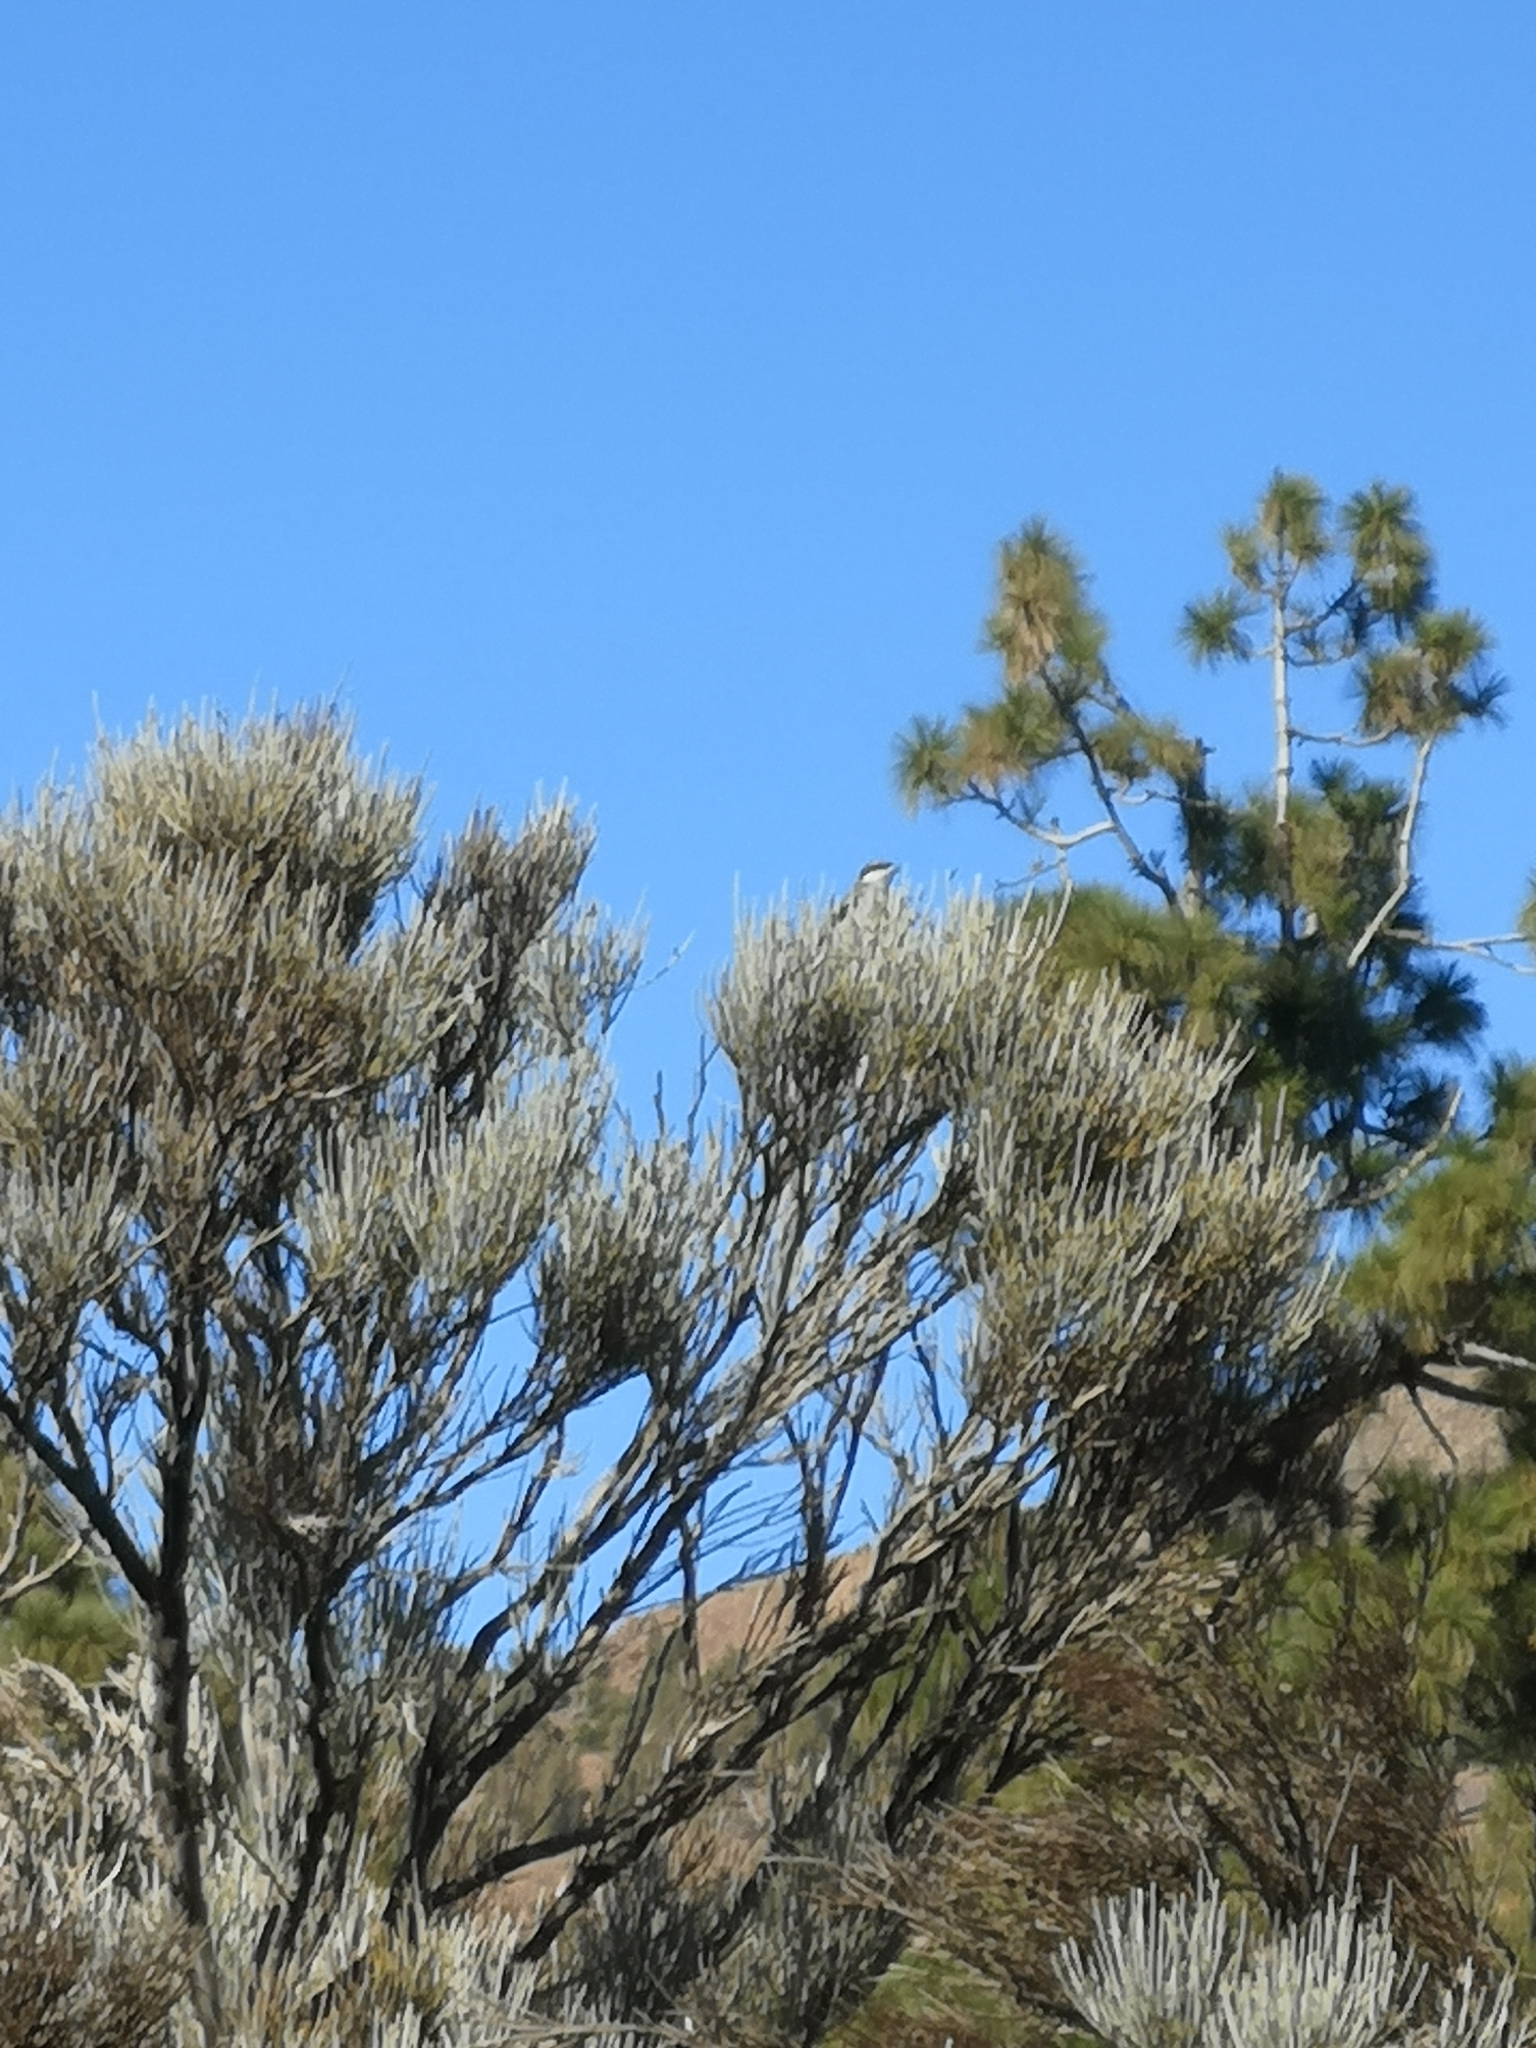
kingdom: Animalia
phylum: Chordata
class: Aves
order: Passeriformes
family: Laniidae
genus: Lanius
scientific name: Lanius excubitor
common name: Great grey shrike
